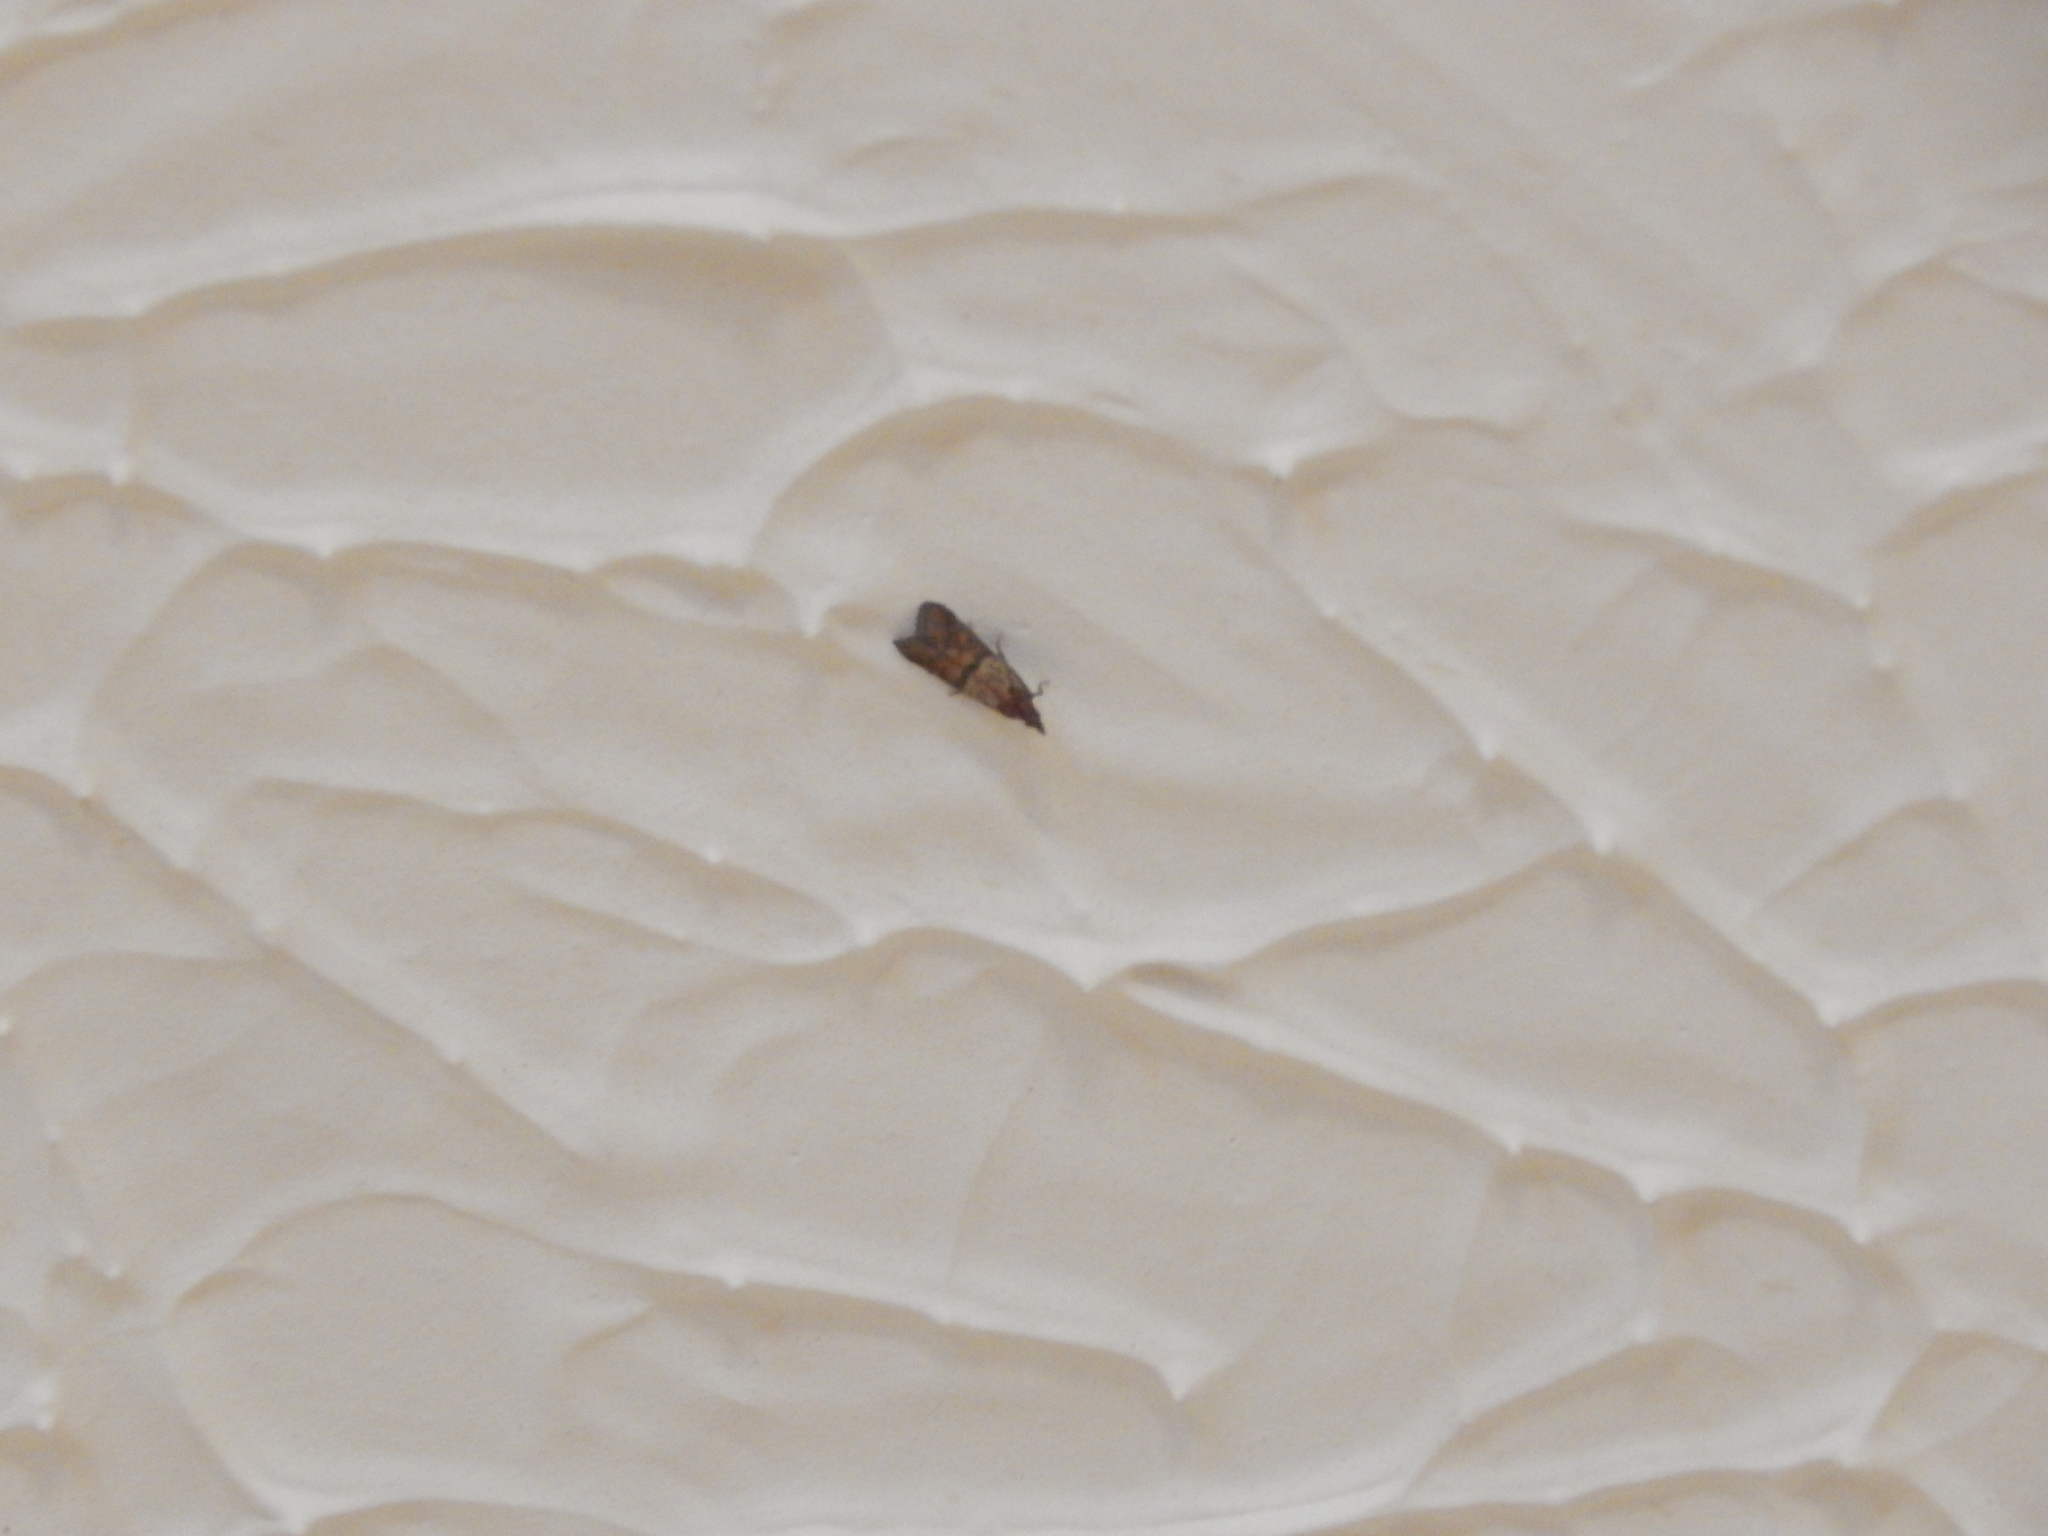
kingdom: Animalia
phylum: Arthropoda
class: Insecta
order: Lepidoptera
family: Pyralidae
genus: Plodia
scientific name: Plodia interpunctella
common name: Indian meal moth
